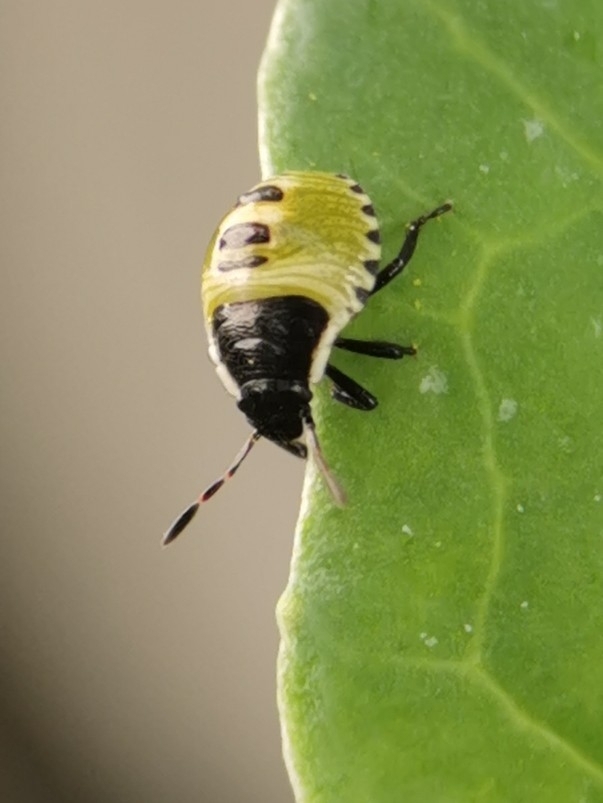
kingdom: Animalia
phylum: Arthropoda
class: Insecta
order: Hemiptera
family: Pentatomidae
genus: Palomena
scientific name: Palomena prasina
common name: Green shieldbug
